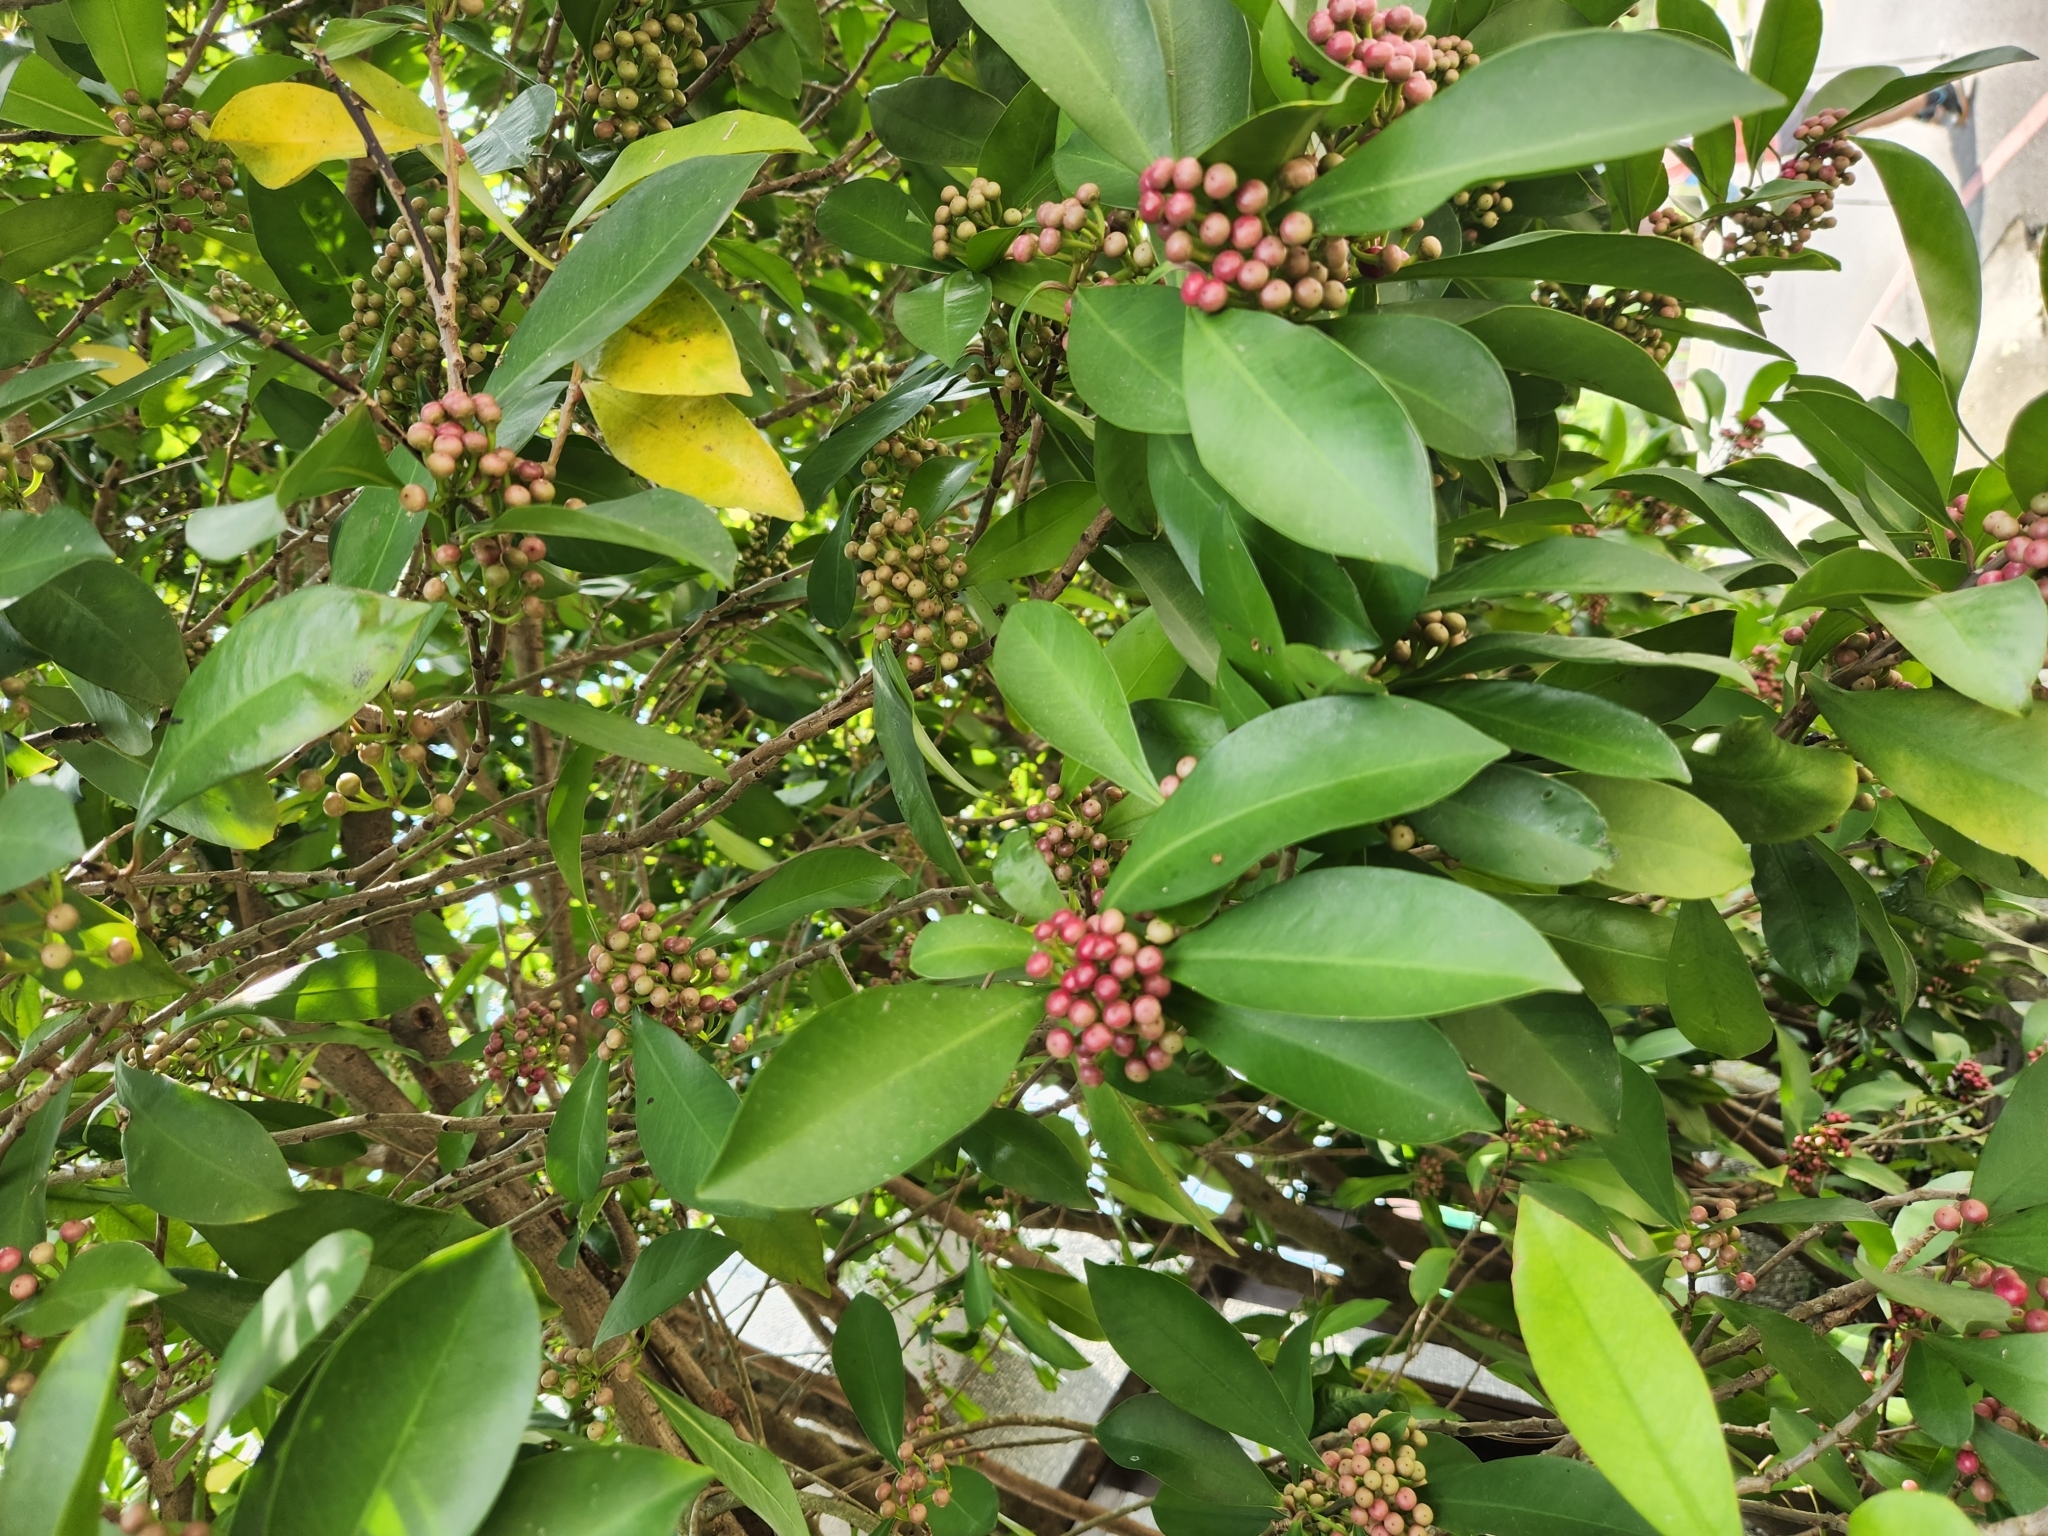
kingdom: Plantae
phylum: Tracheophyta
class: Magnoliopsida
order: Ericales
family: Primulaceae
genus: Ardisia
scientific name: Ardisia elliptica
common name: Shoebutton
